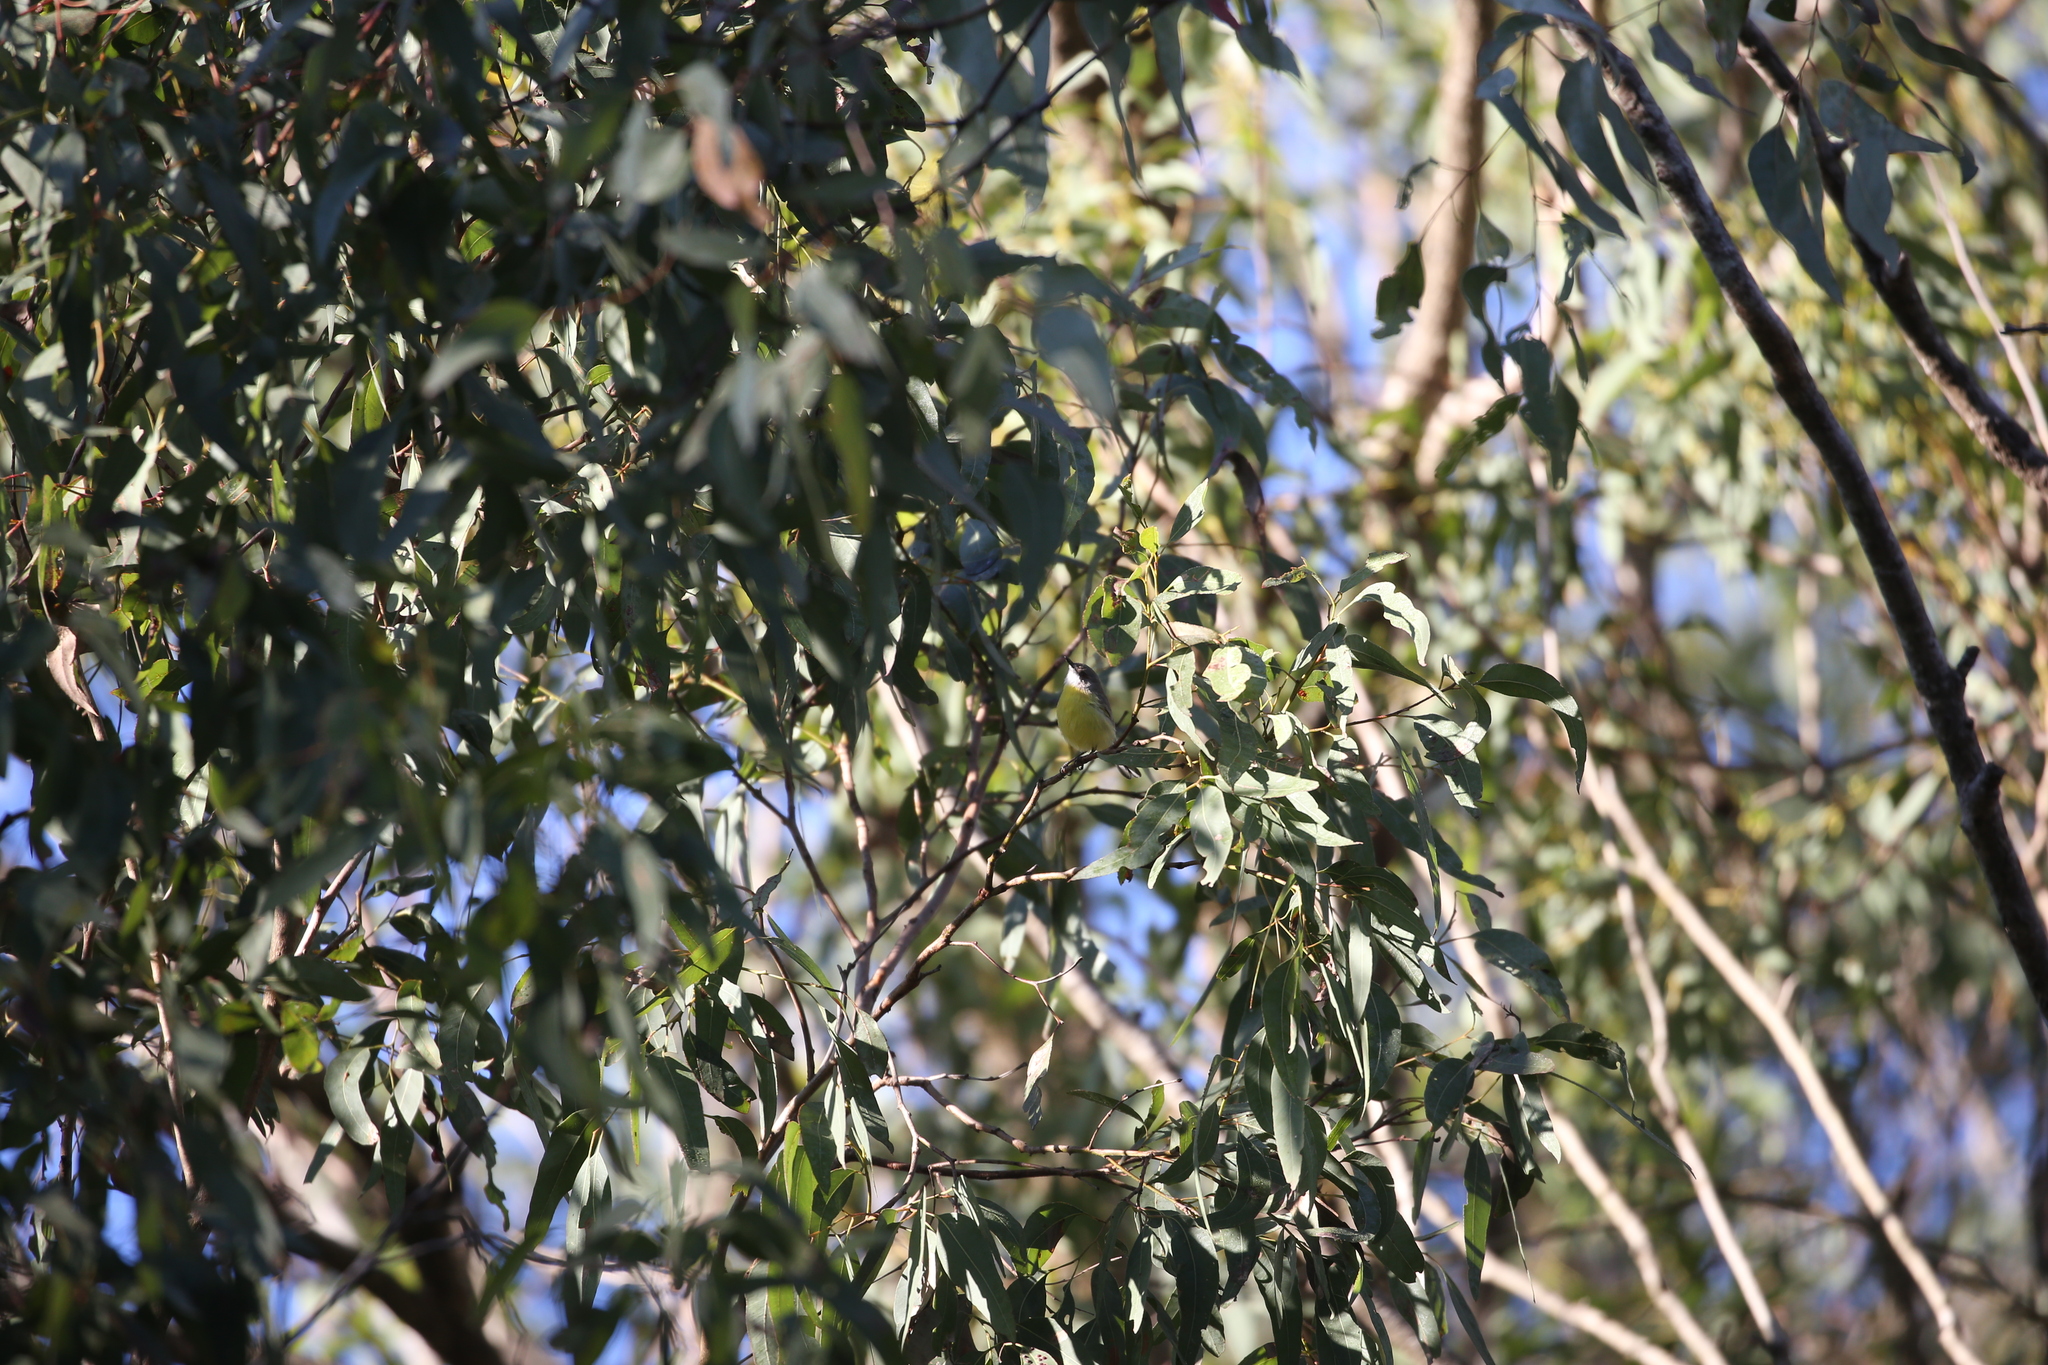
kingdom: Animalia
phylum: Chordata
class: Aves
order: Passeriformes
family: Acanthizidae
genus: Gerygone
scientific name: Gerygone olivacea
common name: White-throated gerygone
